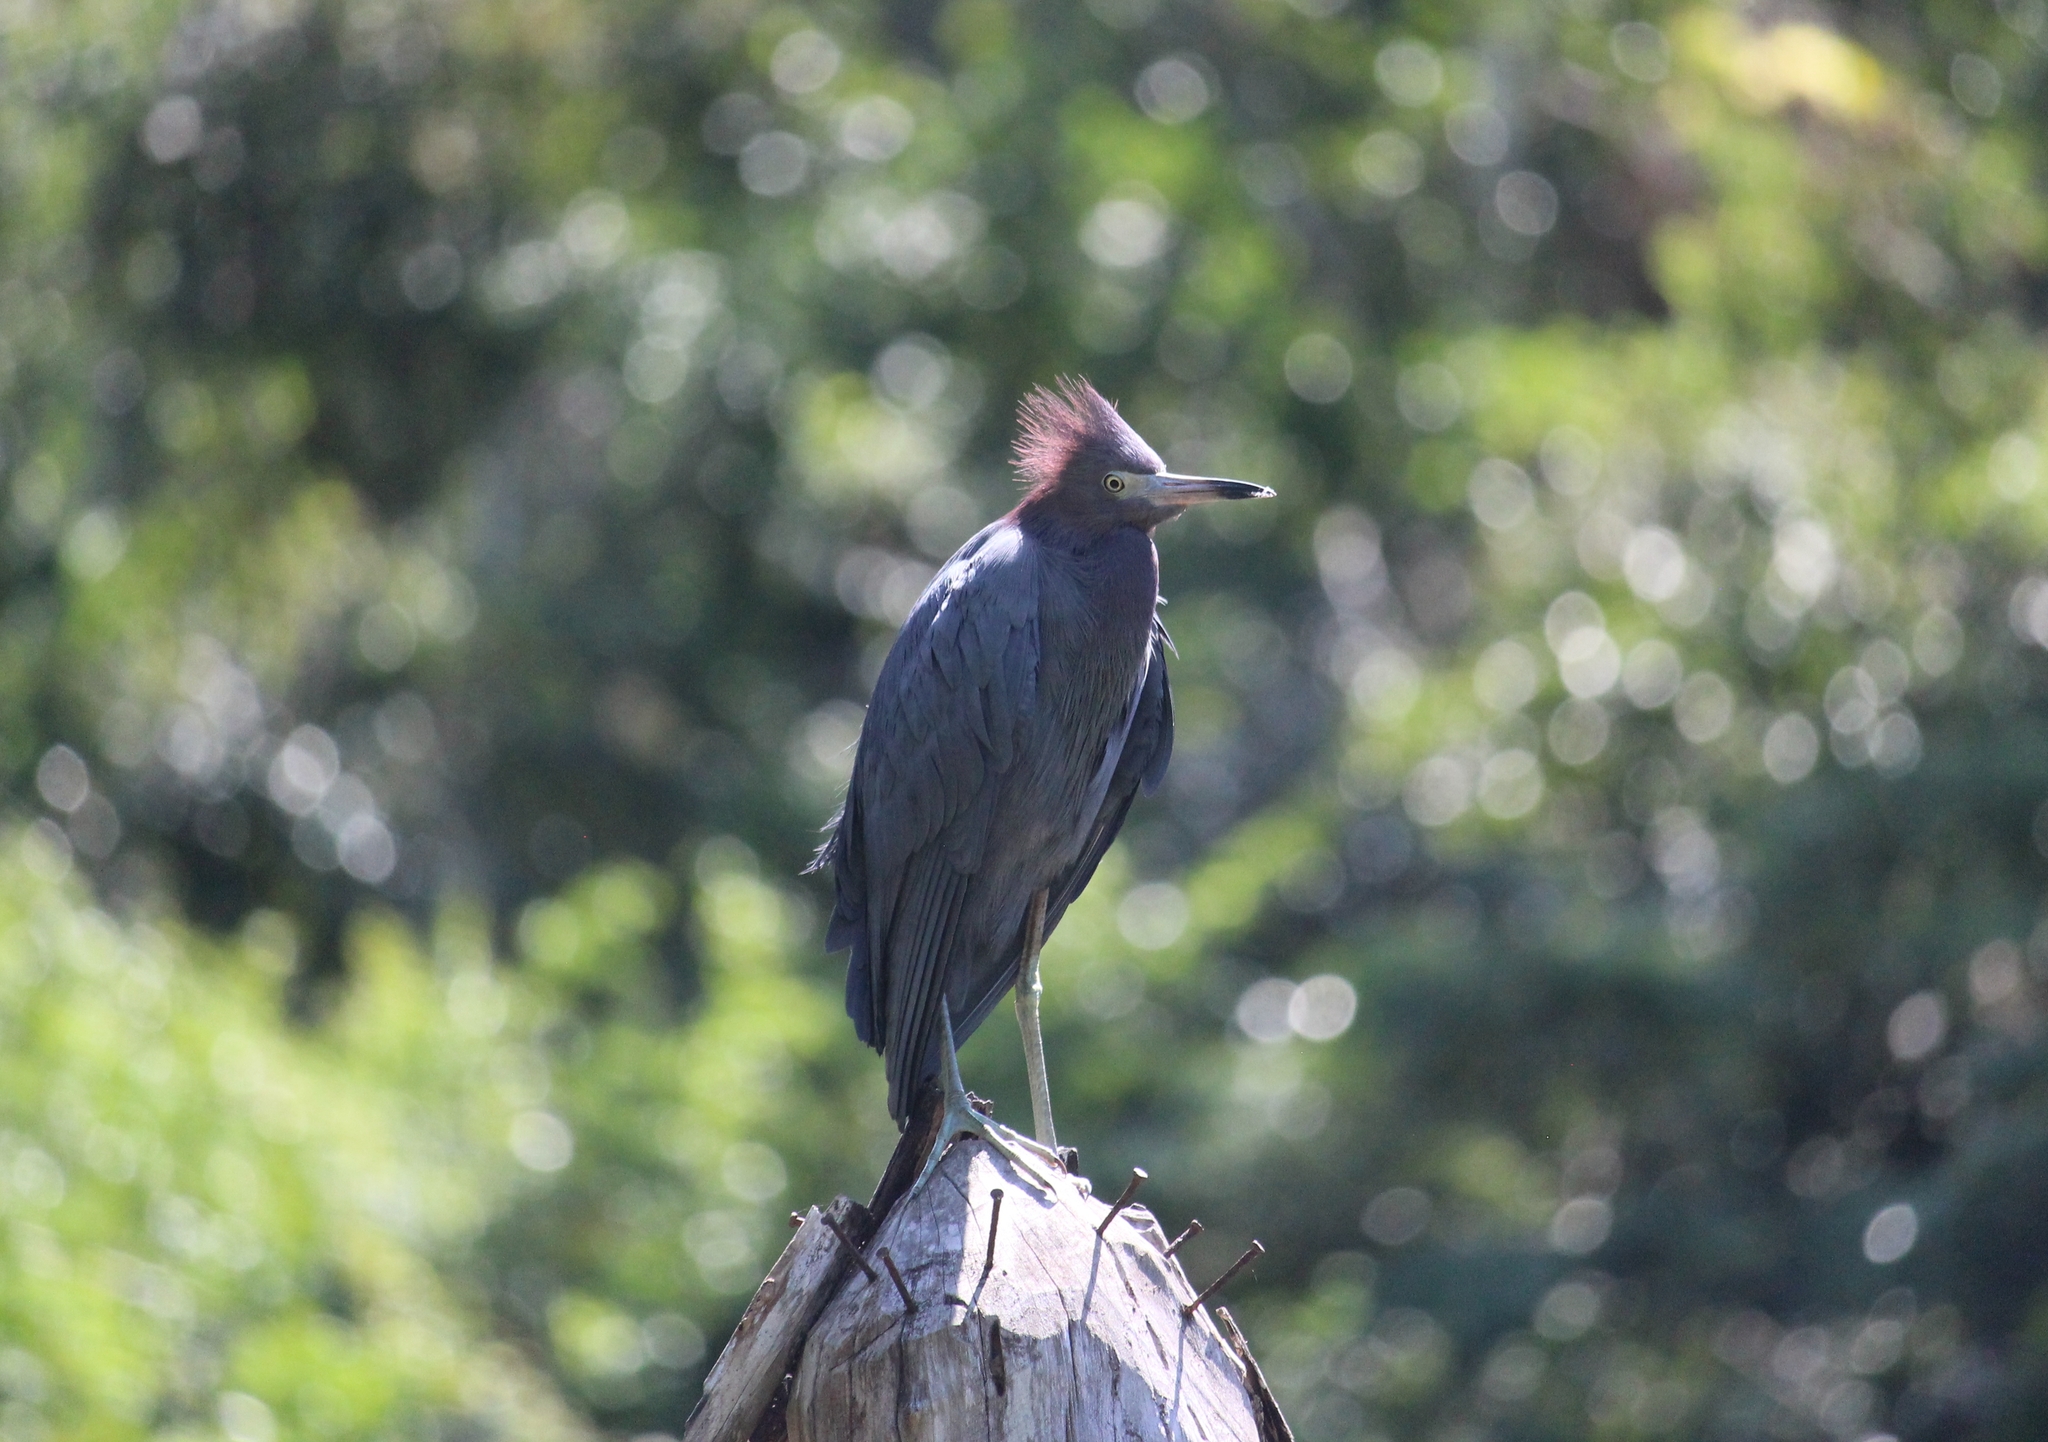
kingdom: Animalia
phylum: Chordata
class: Aves
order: Pelecaniformes
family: Ardeidae
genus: Egretta
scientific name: Egretta caerulea
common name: Little blue heron
